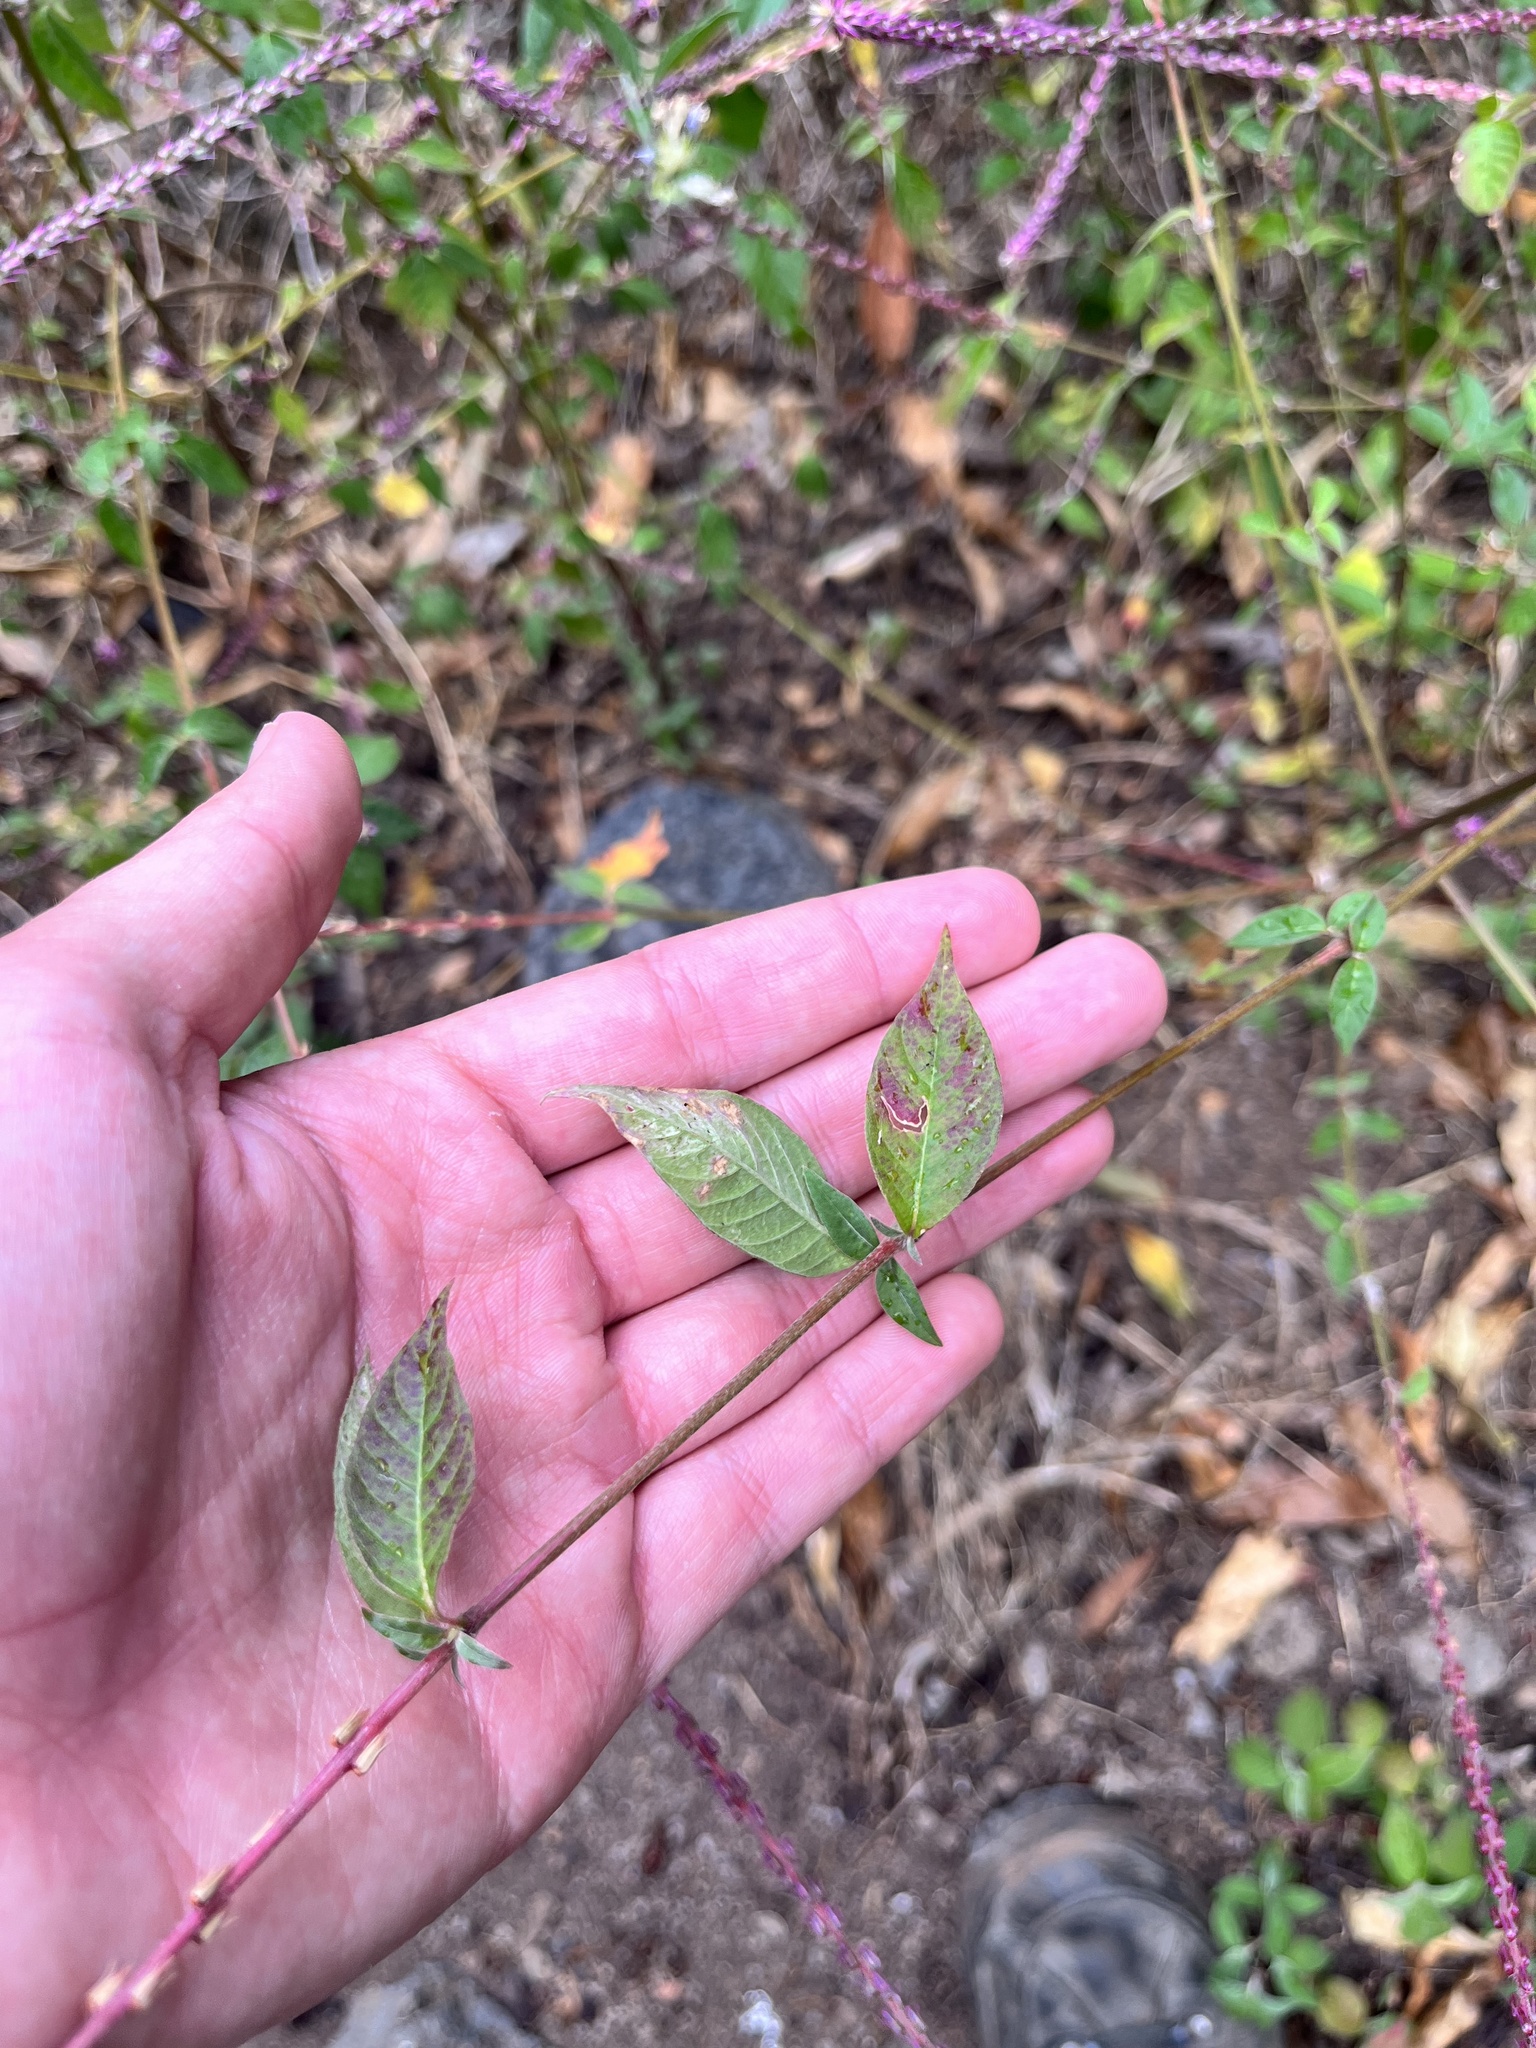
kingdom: Plantae
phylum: Tracheophyta
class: Magnoliopsida
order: Caryophyllales
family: Amaranthaceae
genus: Achyranthes
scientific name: Achyranthes aspera
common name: Devil's horsewhip
